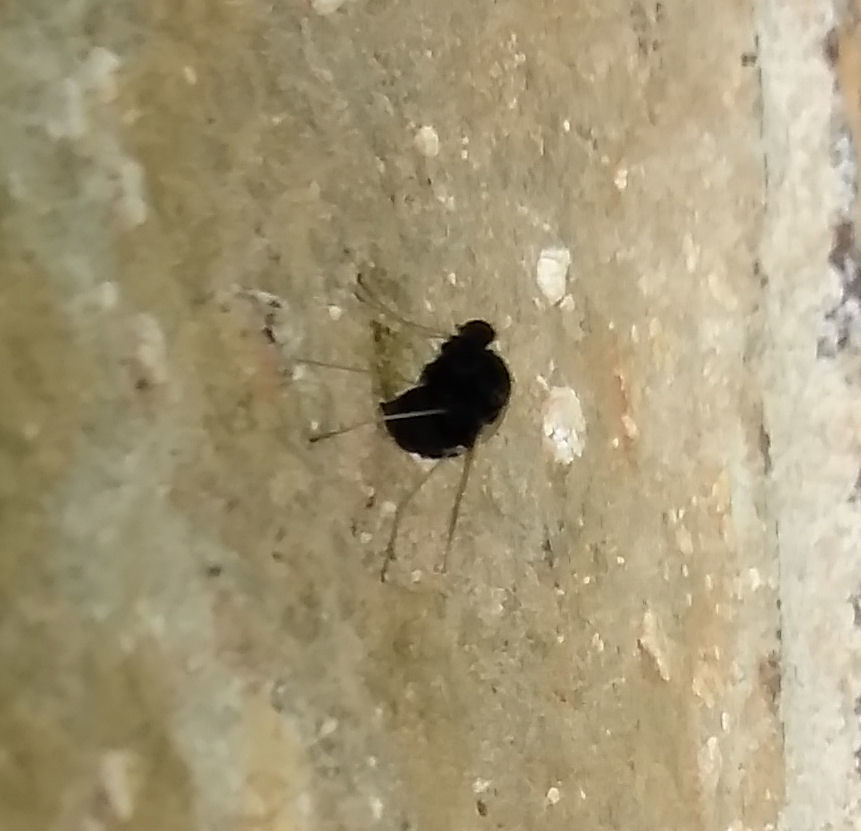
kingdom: Animalia
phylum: Arthropoda
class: Insecta
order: Diptera
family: Rhagionidae
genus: Chrysopilus
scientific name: Chrysopilus basilaris
